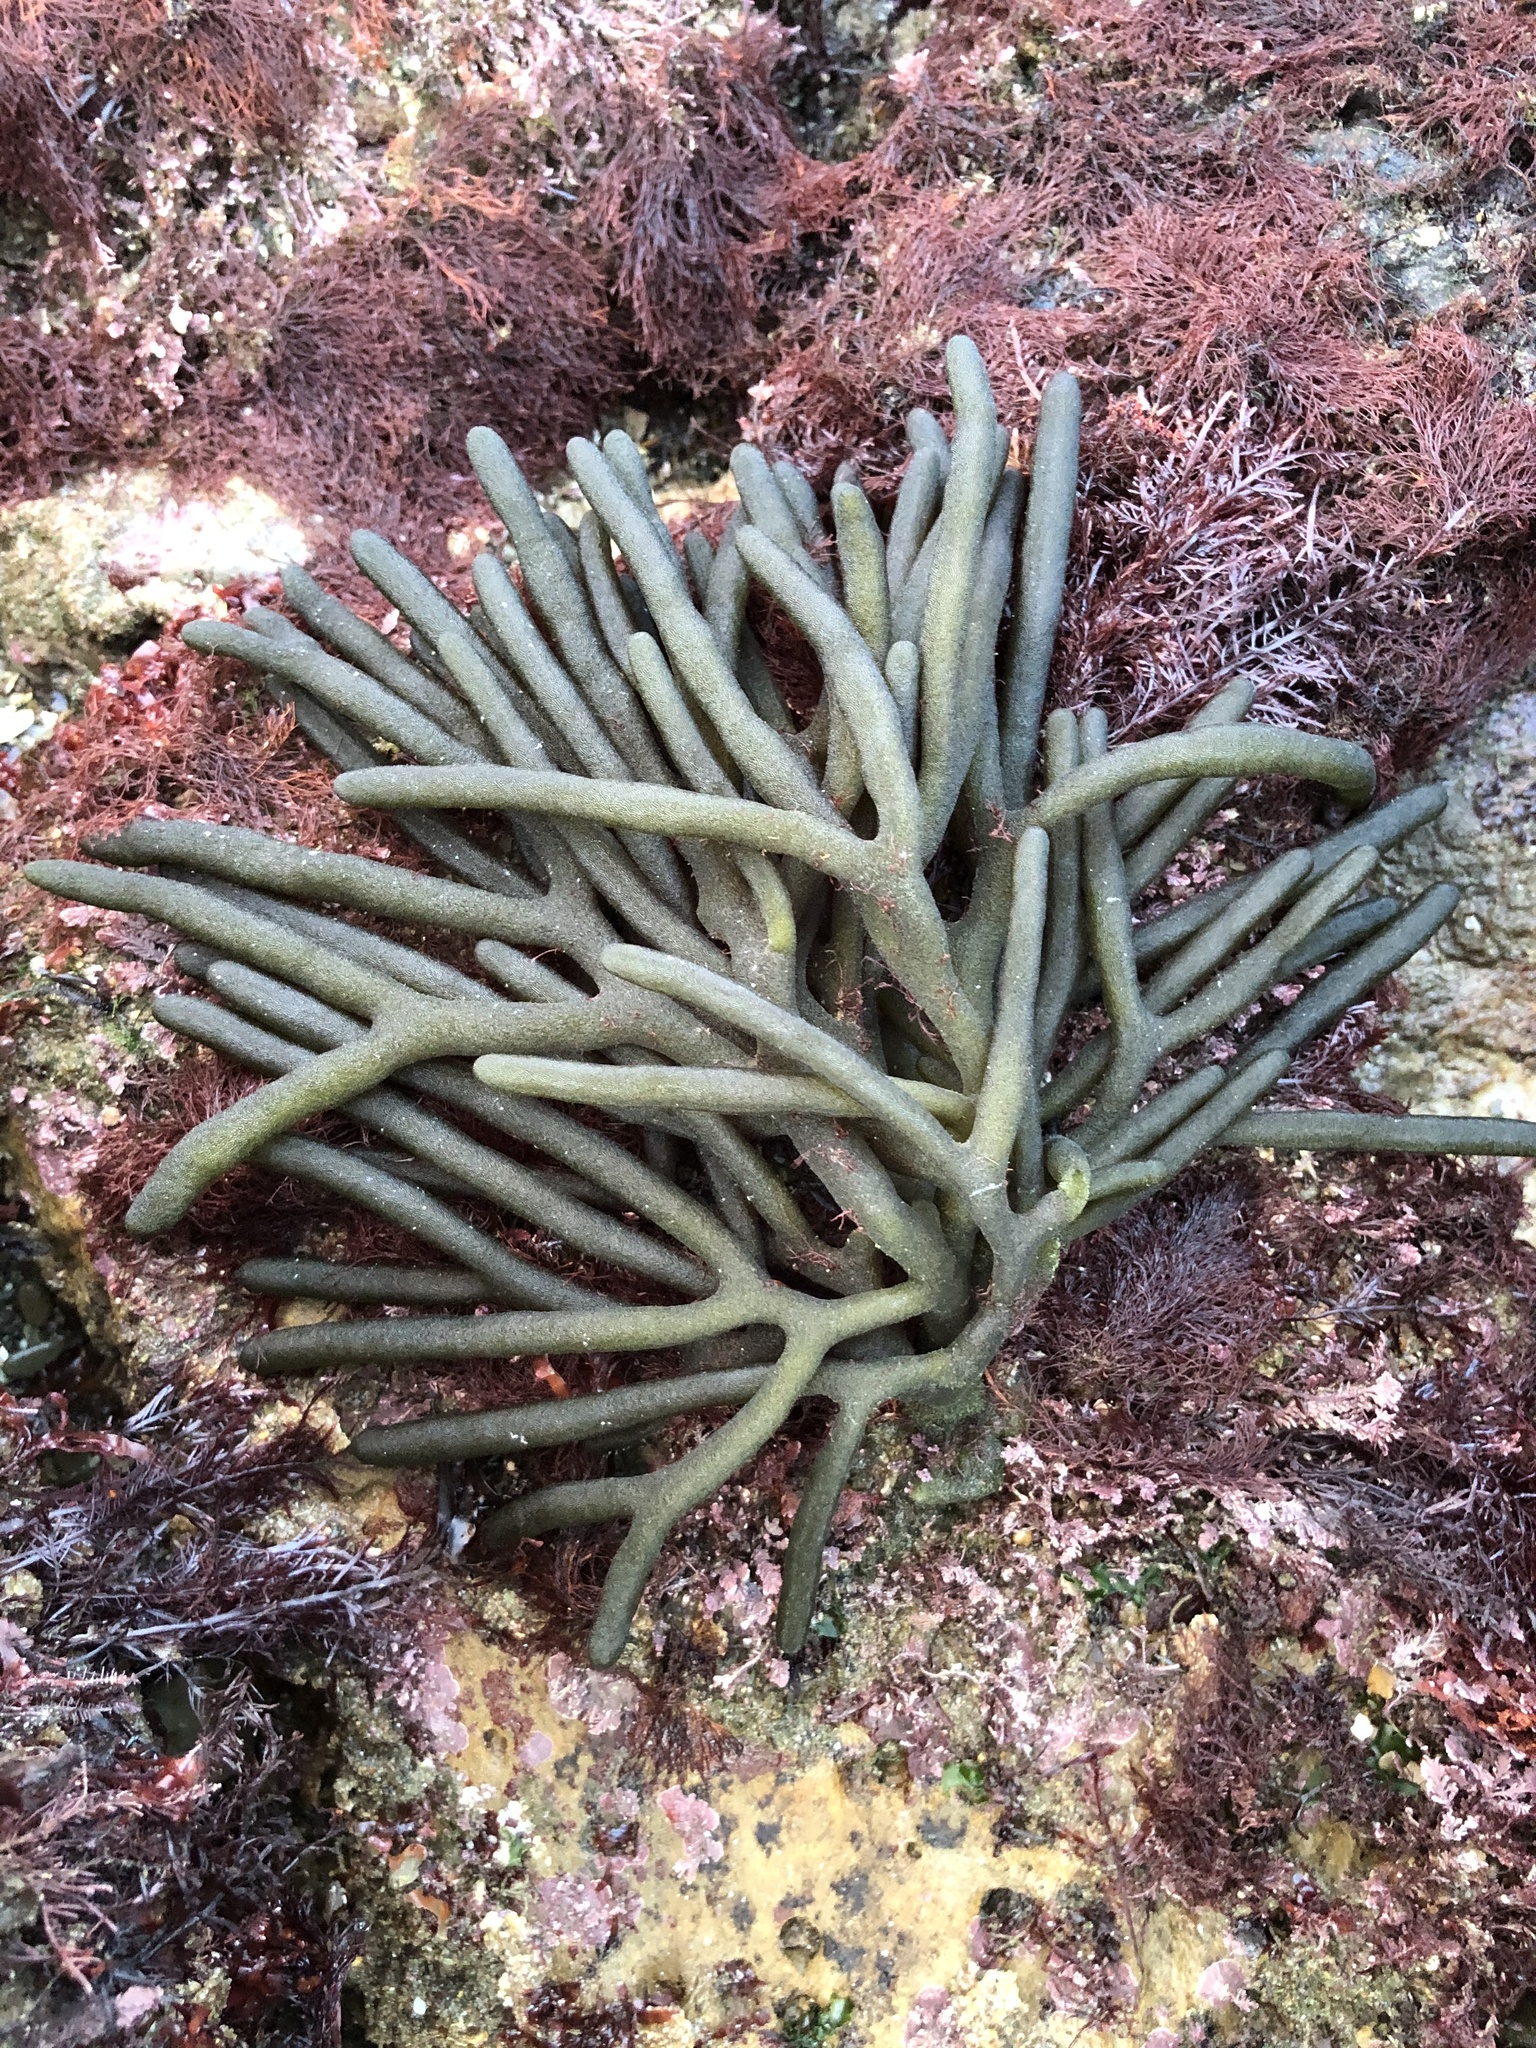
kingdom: Plantae
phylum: Chlorophyta
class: Ulvophyceae
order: Bryopsidales
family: Codiaceae
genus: Codium
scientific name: Codium fragile
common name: Dead man's fingers
